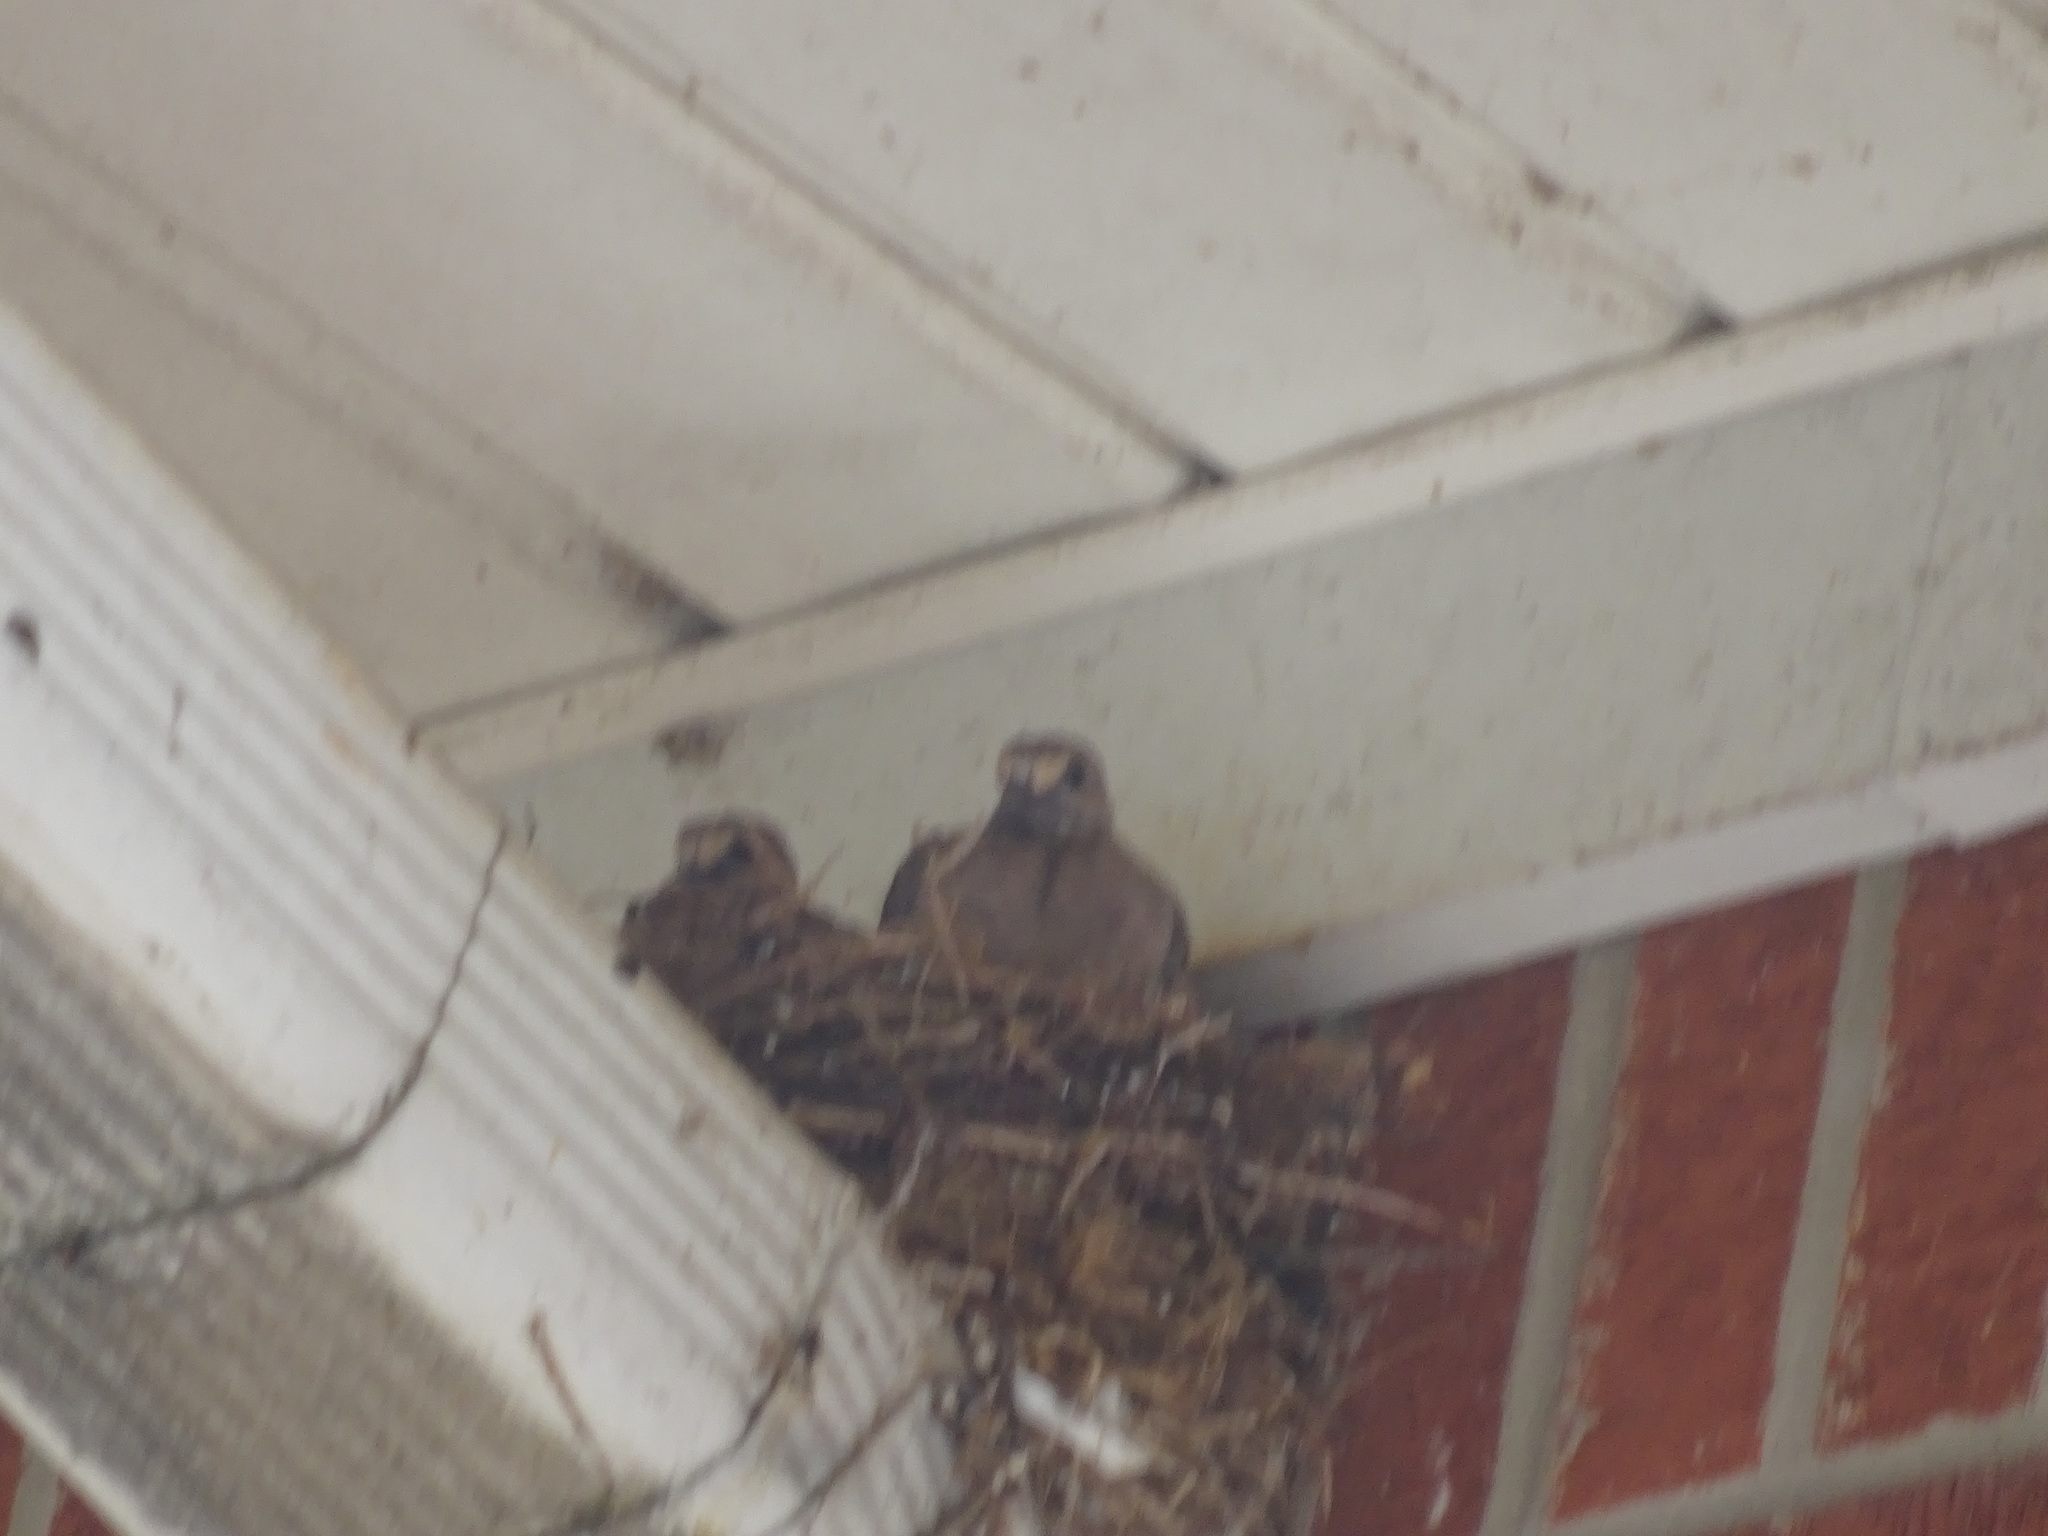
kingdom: Animalia
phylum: Chordata
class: Aves
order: Columbiformes
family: Columbidae
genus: Zenaida
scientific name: Zenaida macroura
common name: Mourning dove
